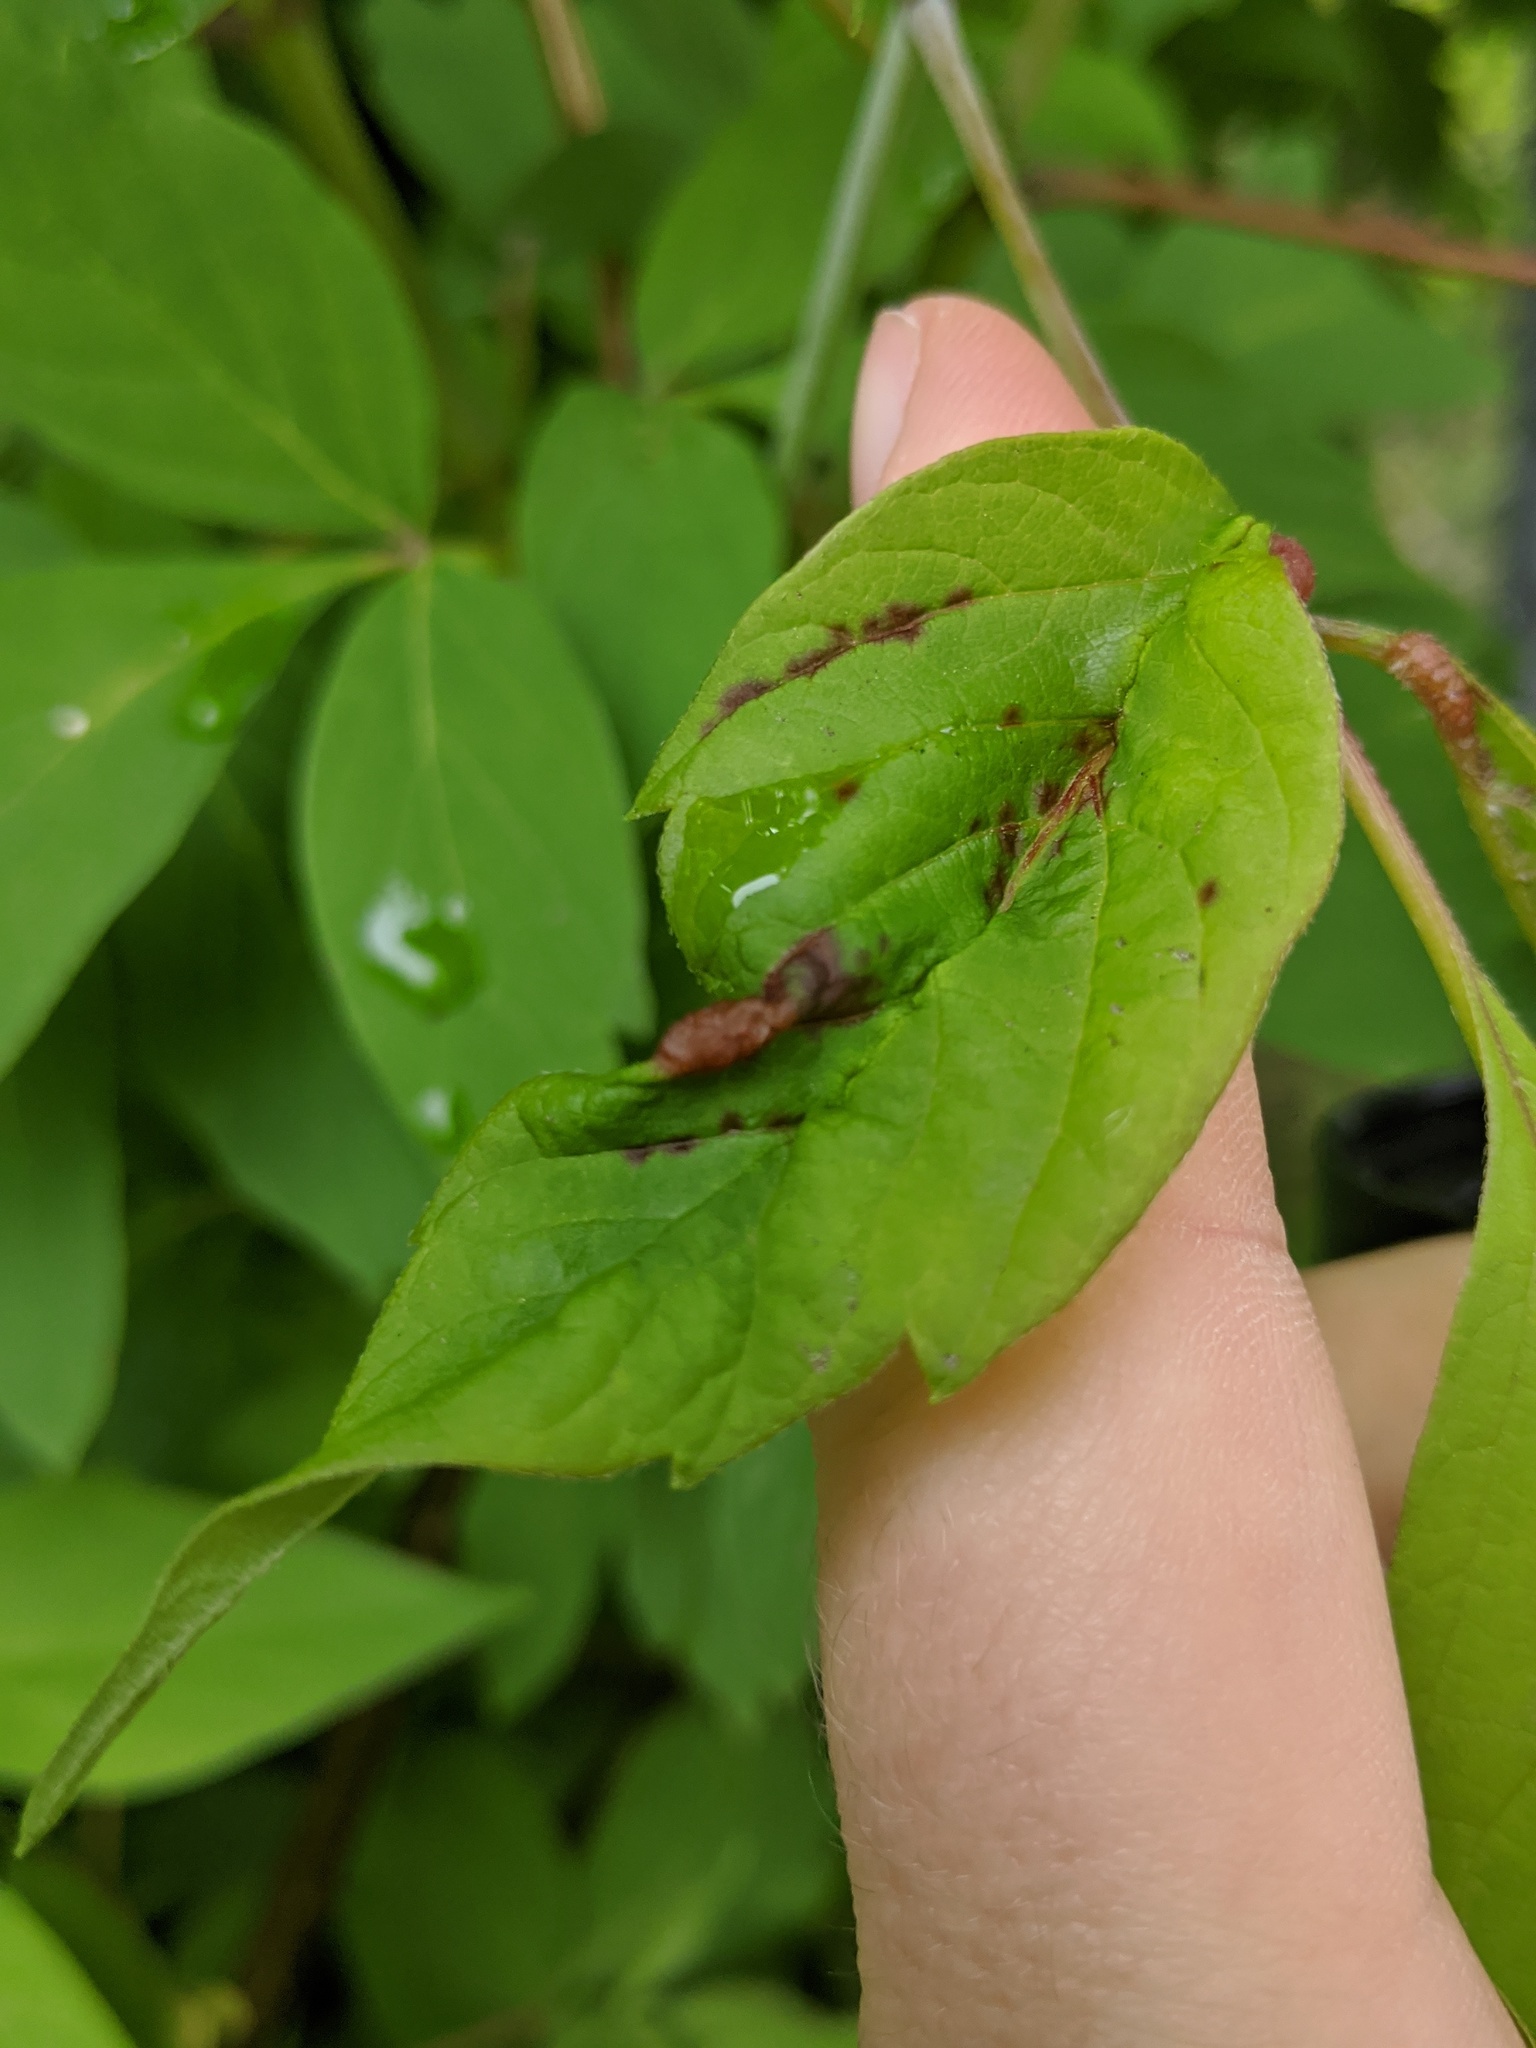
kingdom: Animalia
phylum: Arthropoda
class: Insecta
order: Diptera
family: Cecidomyiidae
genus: Contarinia
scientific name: Contarinia negundinis
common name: Boxelder budgall midge
